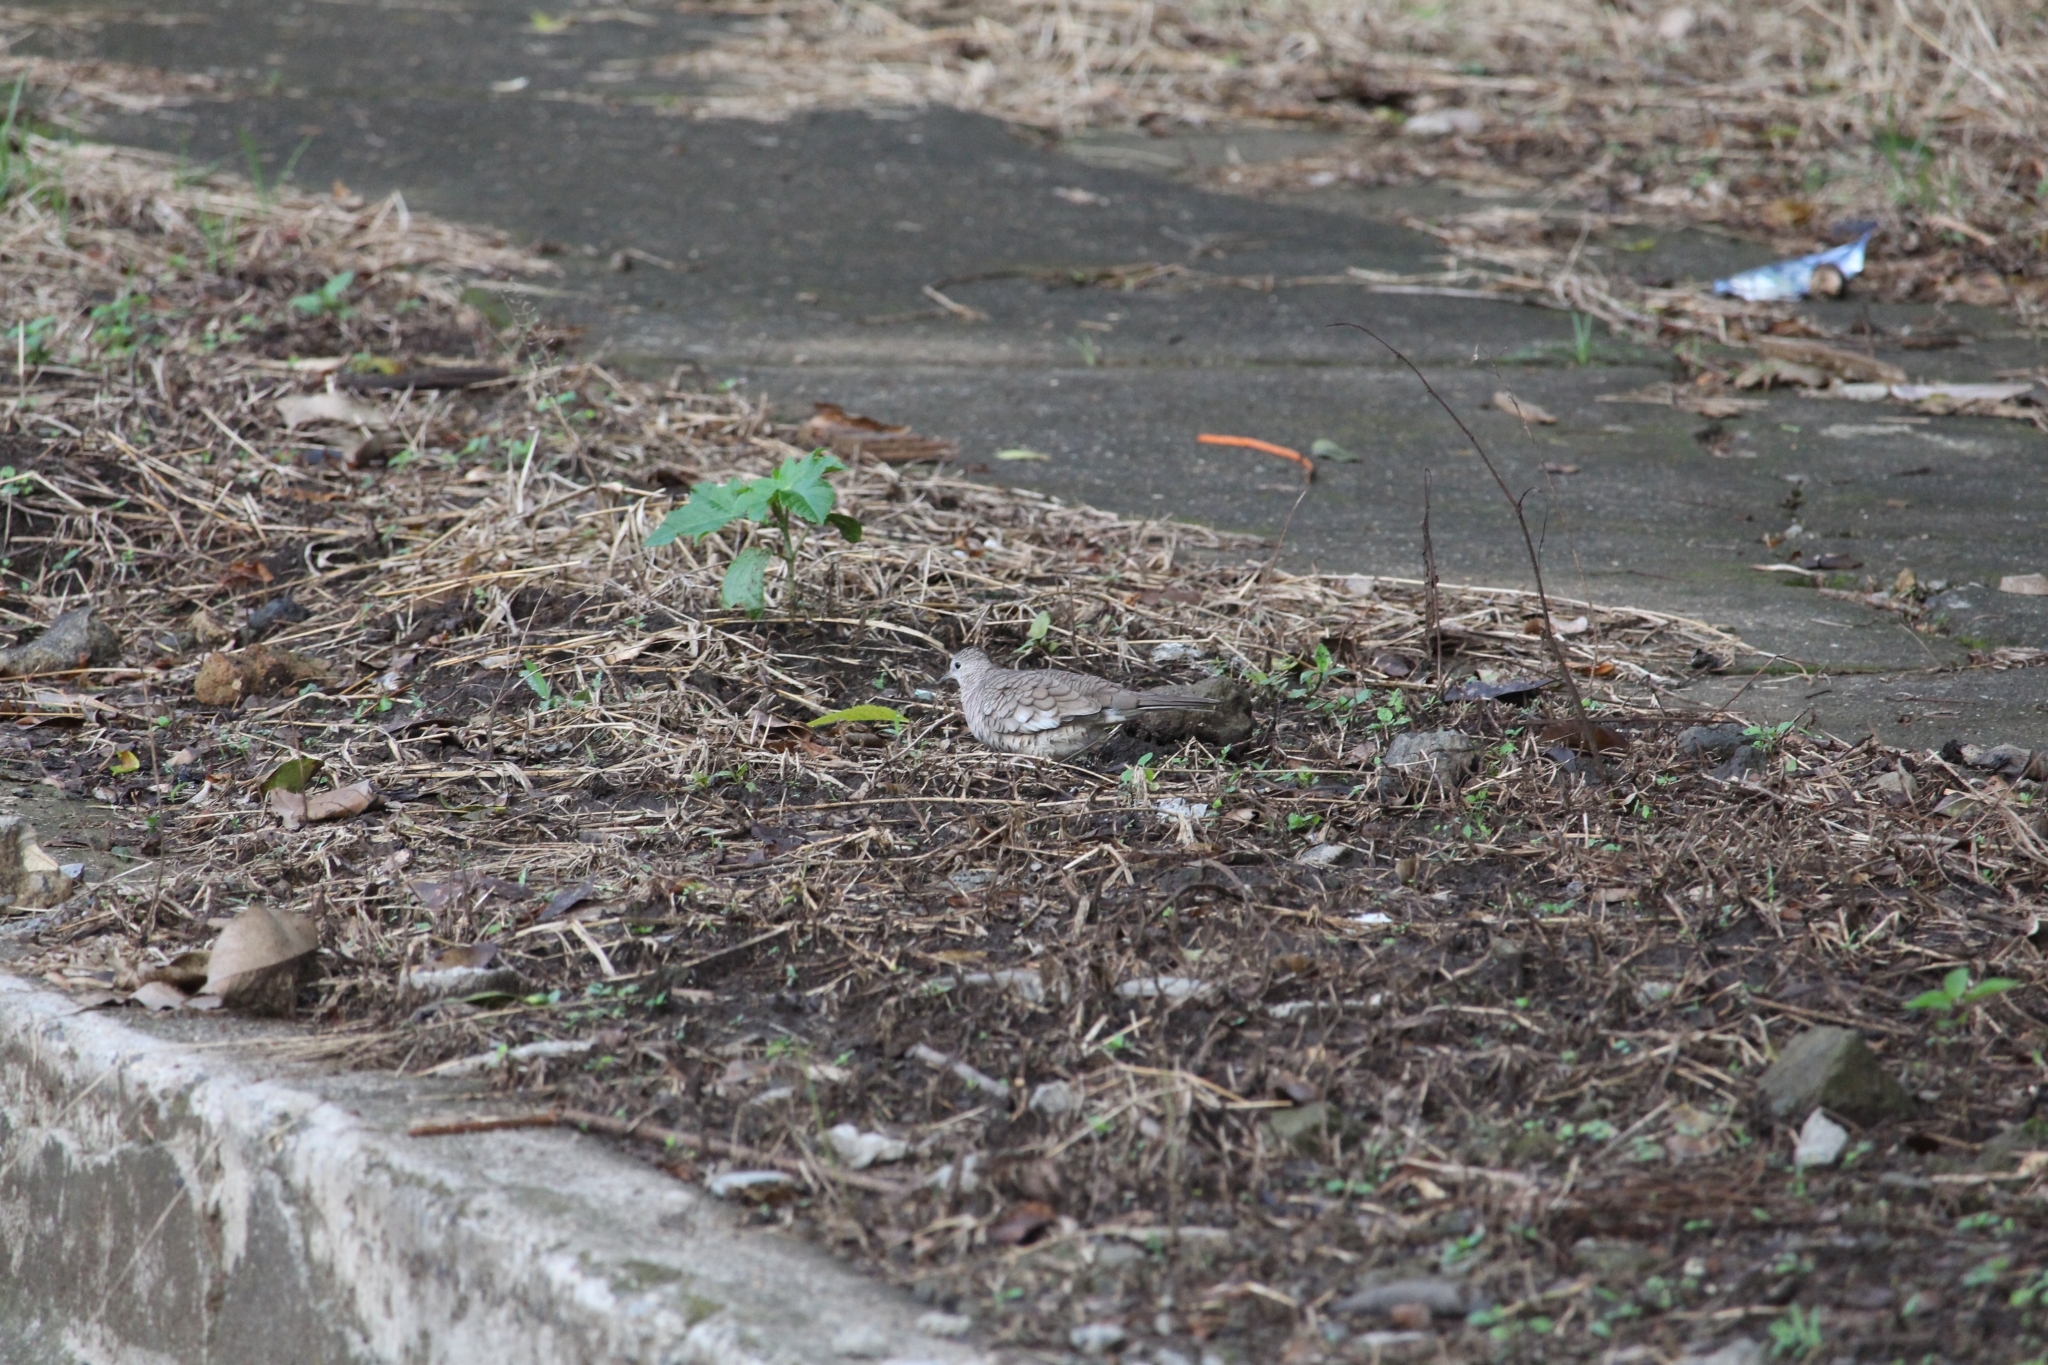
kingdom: Animalia
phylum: Chordata
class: Aves
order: Columbiformes
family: Columbidae
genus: Columbina
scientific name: Columbina inca
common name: Inca dove
